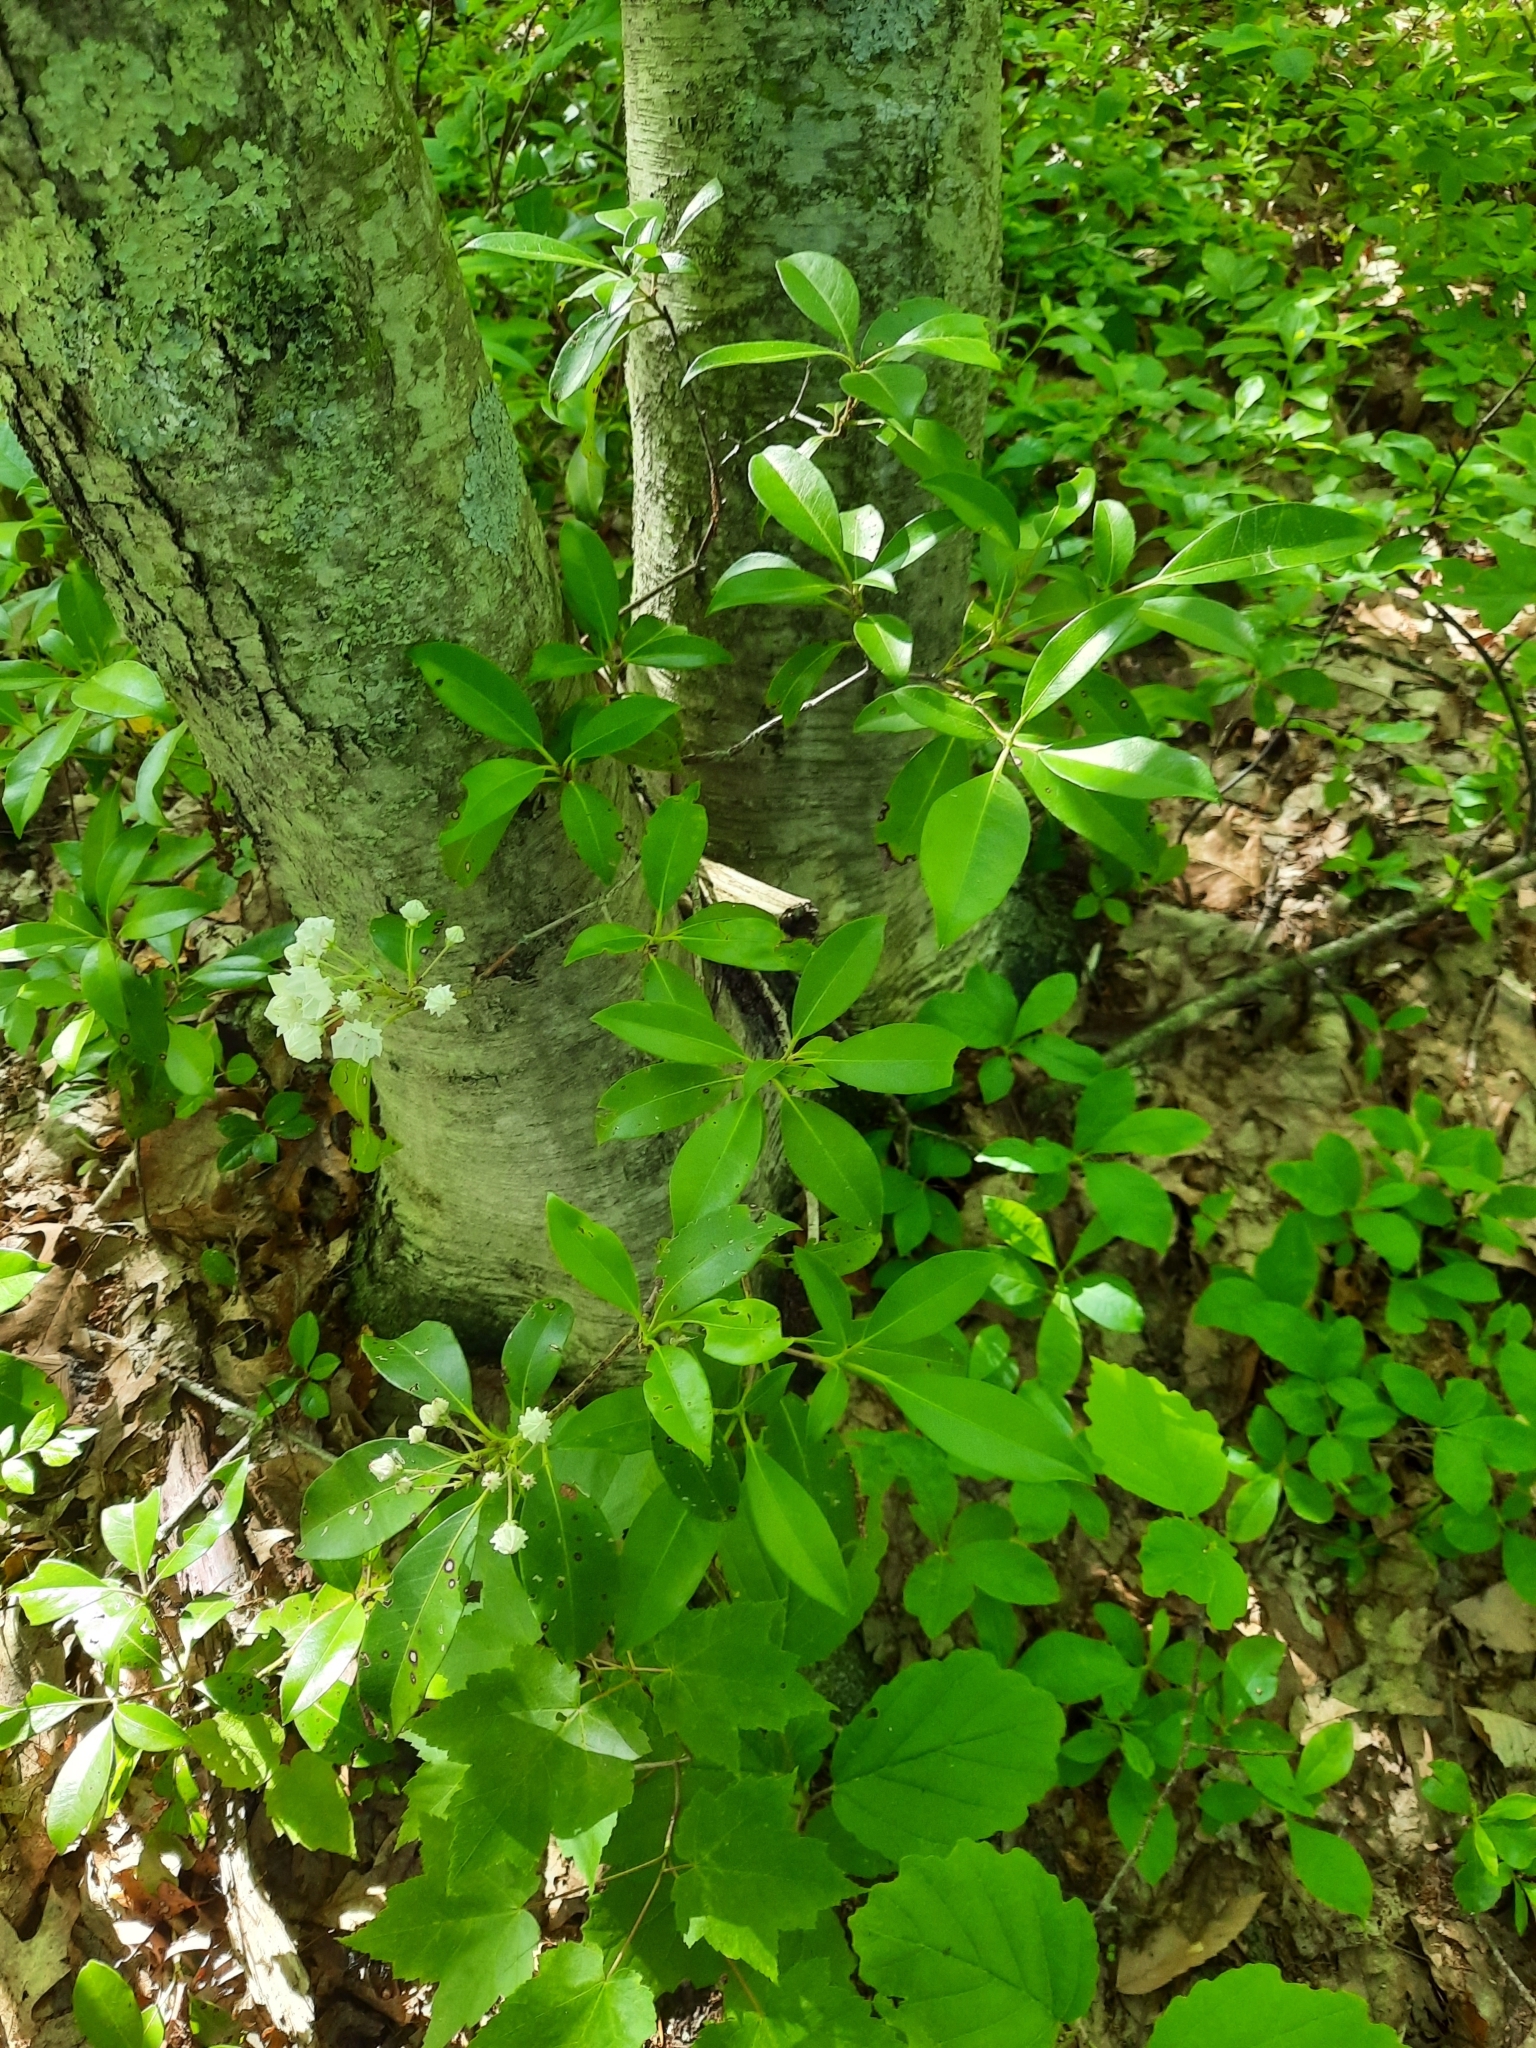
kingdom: Plantae
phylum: Tracheophyta
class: Magnoliopsida
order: Ericales
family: Ericaceae
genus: Kalmia
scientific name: Kalmia latifolia
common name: Mountain-laurel
